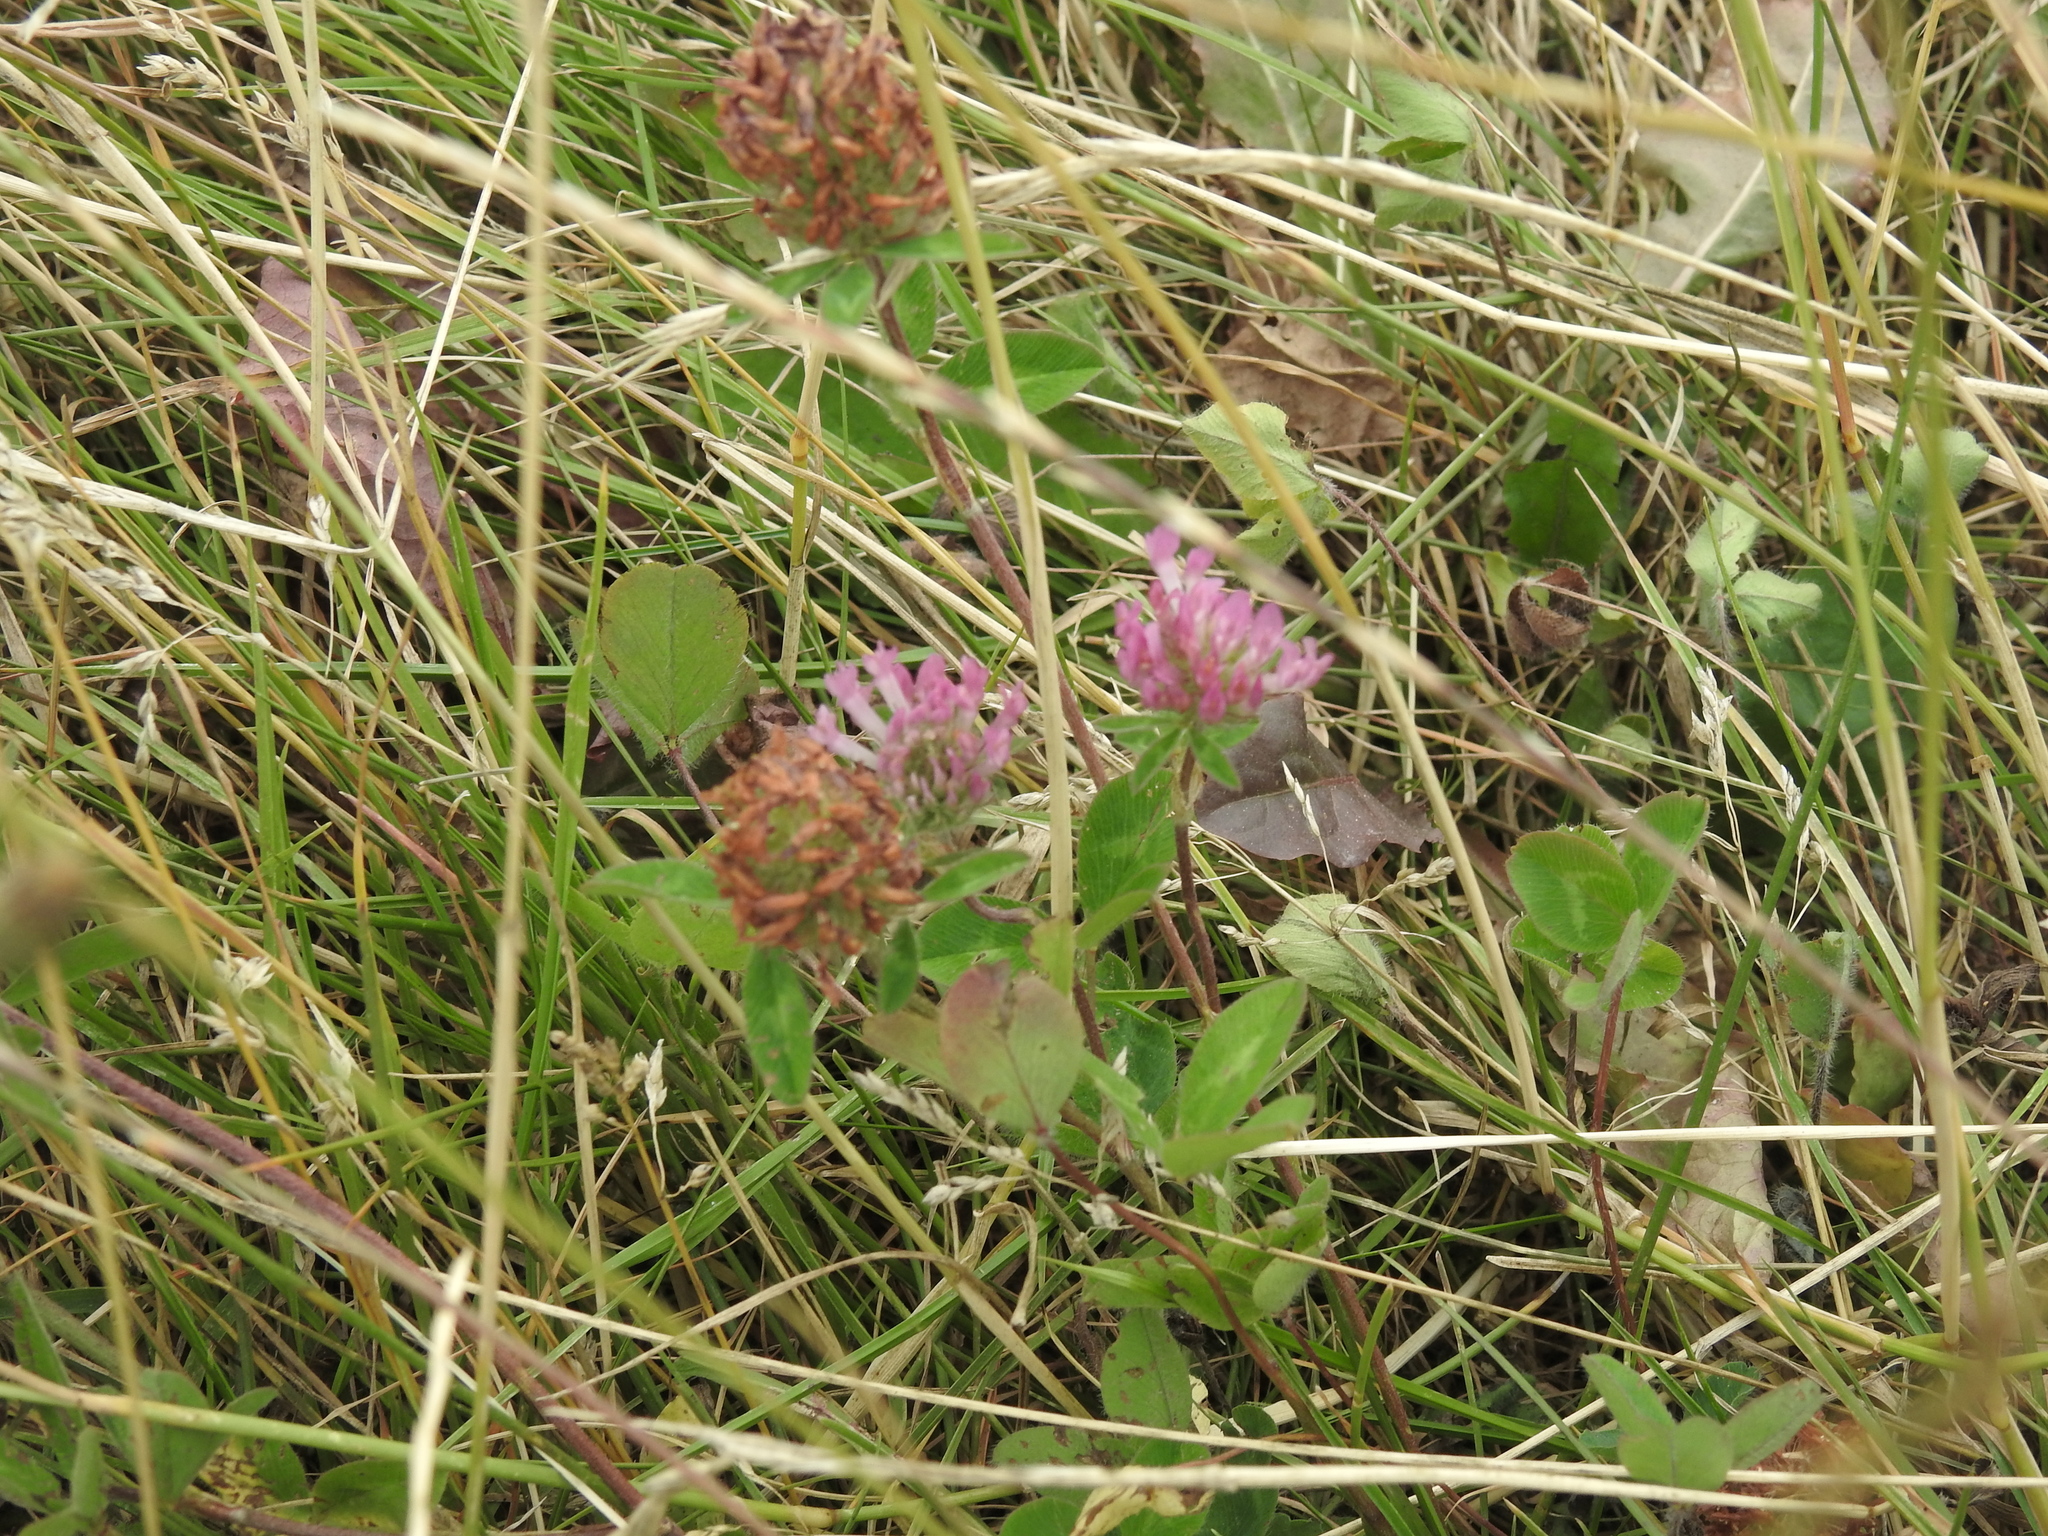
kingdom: Plantae
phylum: Tracheophyta
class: Magnoliopsida
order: Fabales
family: Fabaceae
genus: Trifolium
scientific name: Trifolium pratense
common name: Red clover
